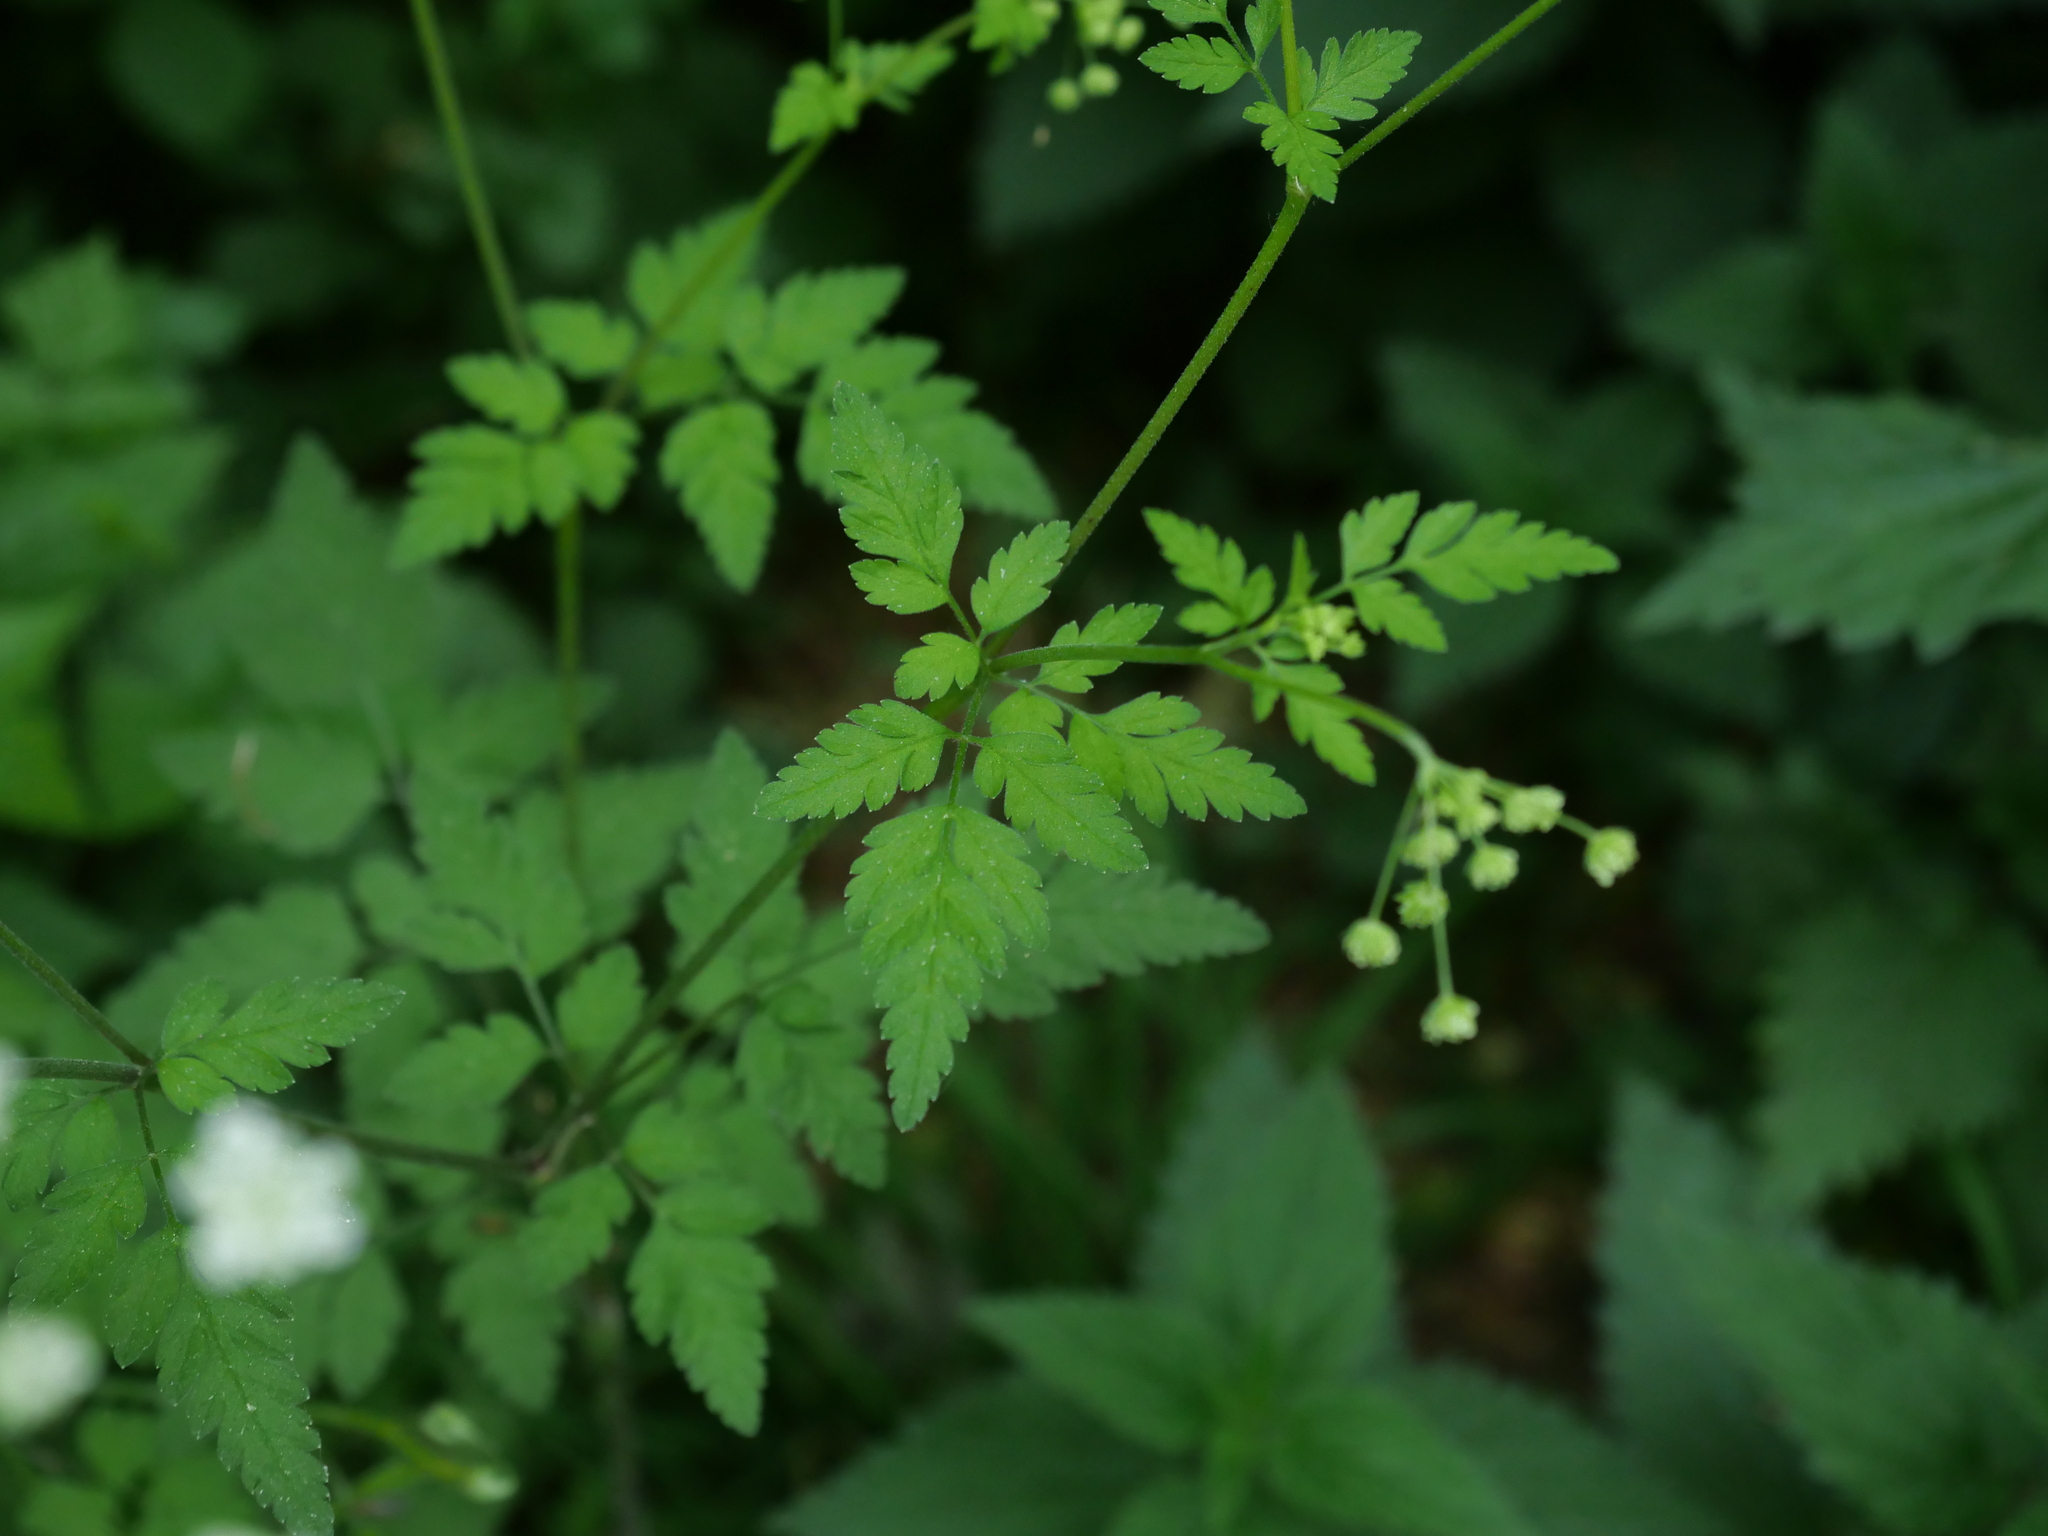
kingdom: Plantae
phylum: Tracheophyta
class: Magnoliopsida
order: Apiales
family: Apiaceae
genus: Chaerophyllum
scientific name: Chaerophyllum temulum
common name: Rough chervil
